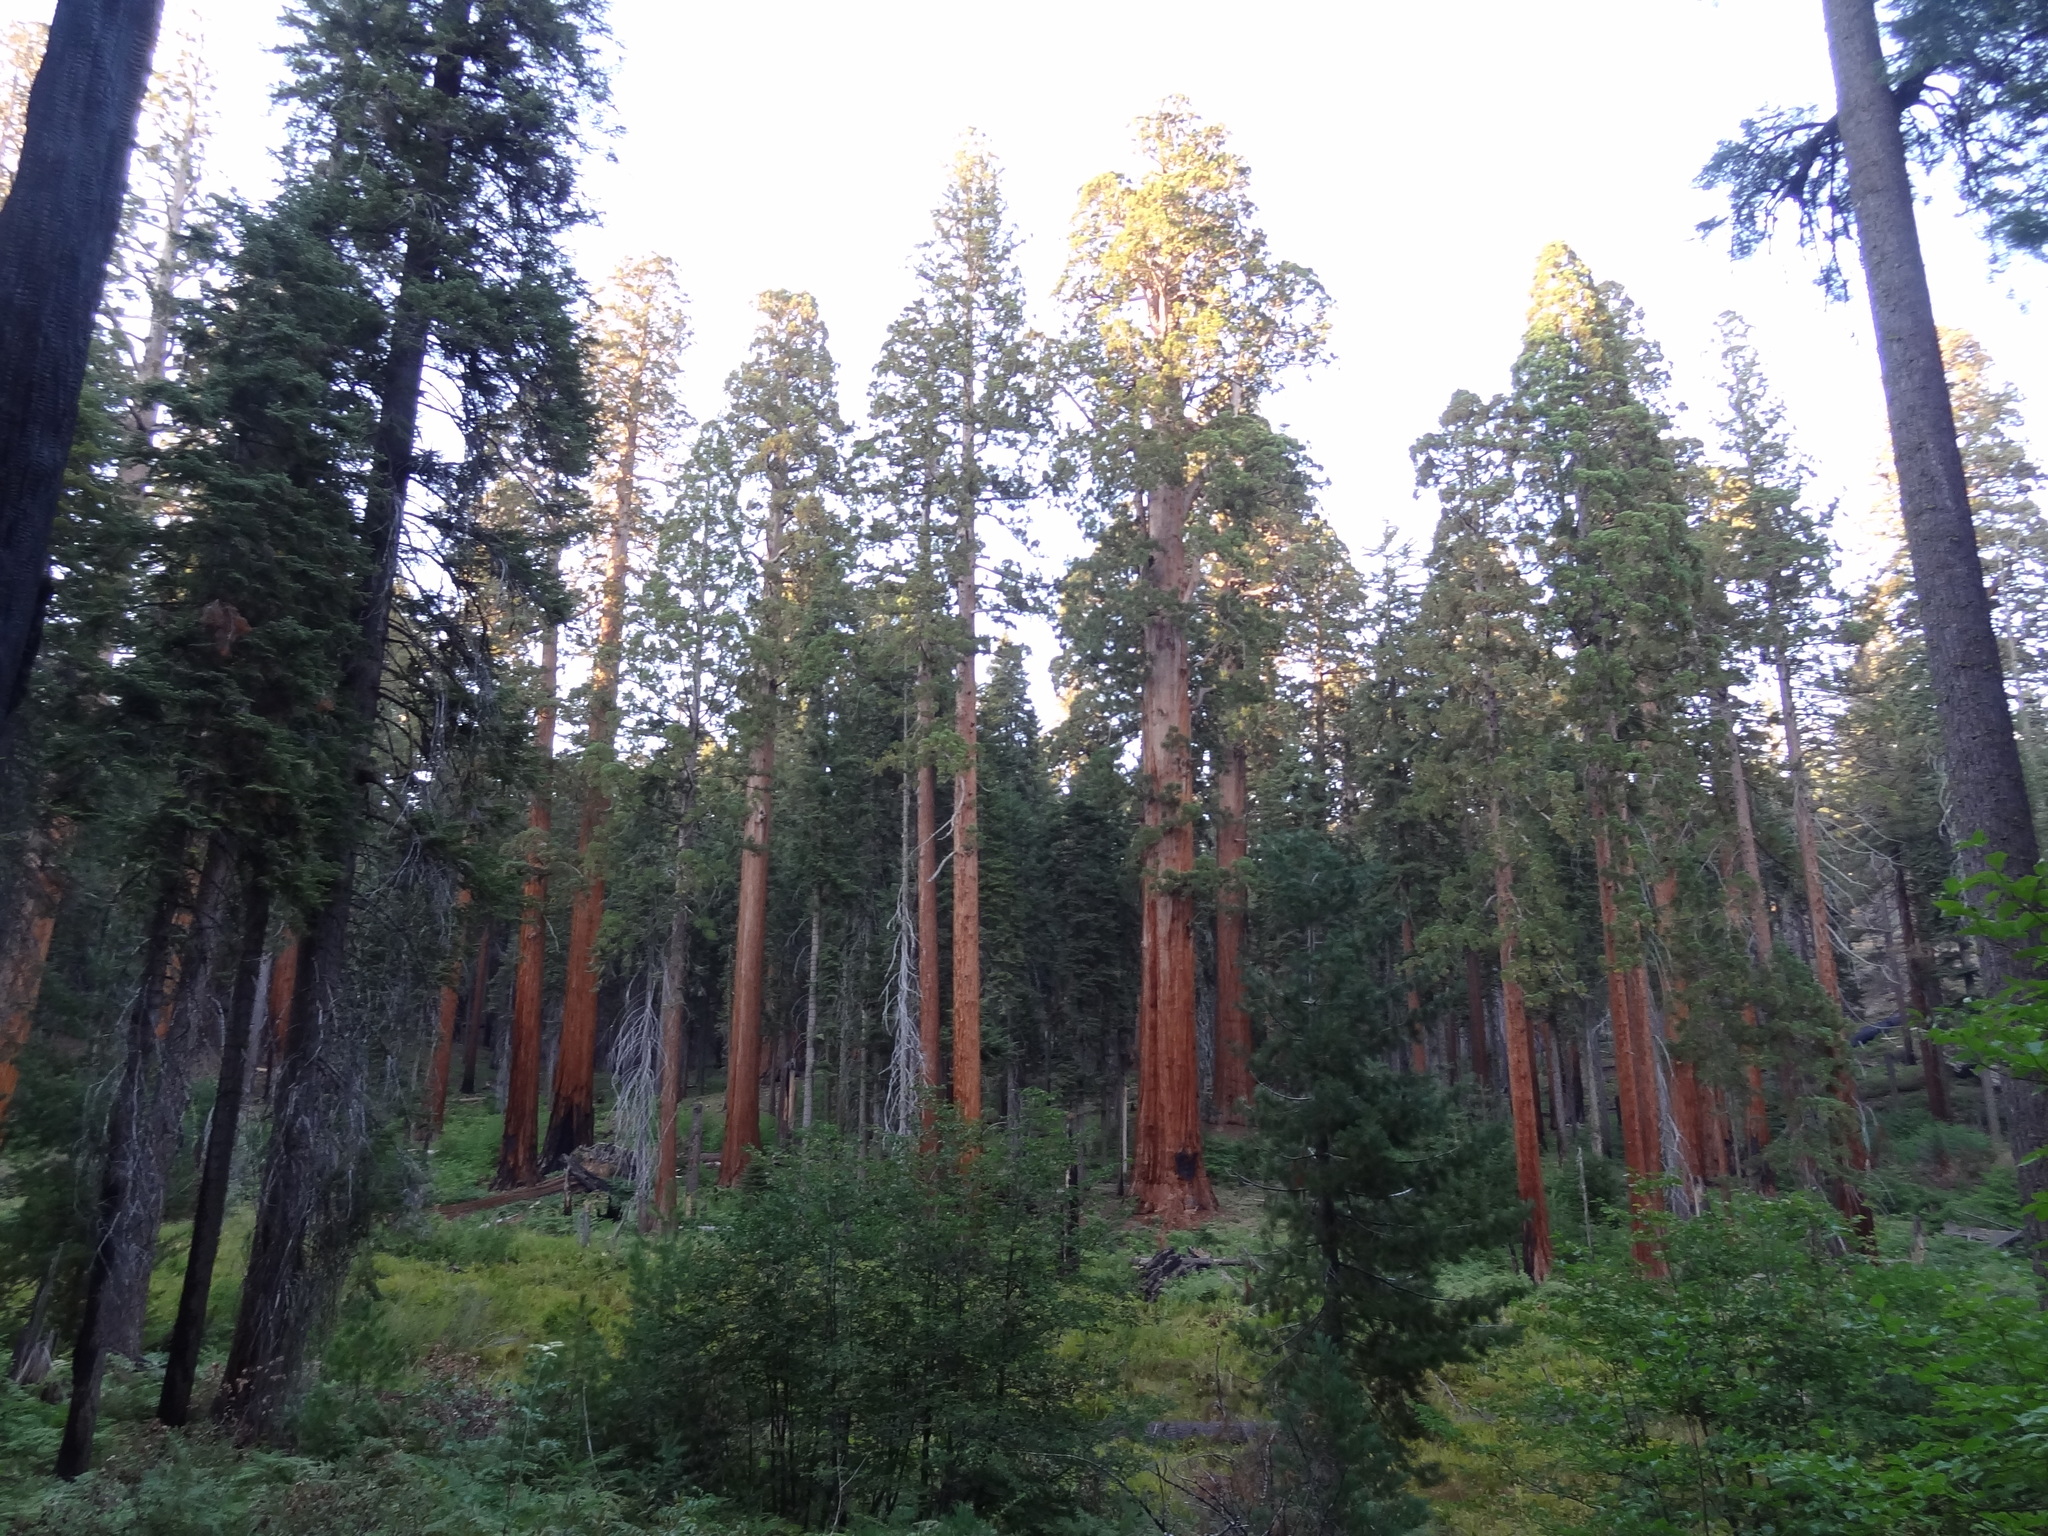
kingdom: Plantae
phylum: Tracheophyta
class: Pinopsida
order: Pinales
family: Cupressaceae
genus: Sequoiadendron
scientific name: Sequoiadendron giganteum
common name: Wellingtonia
